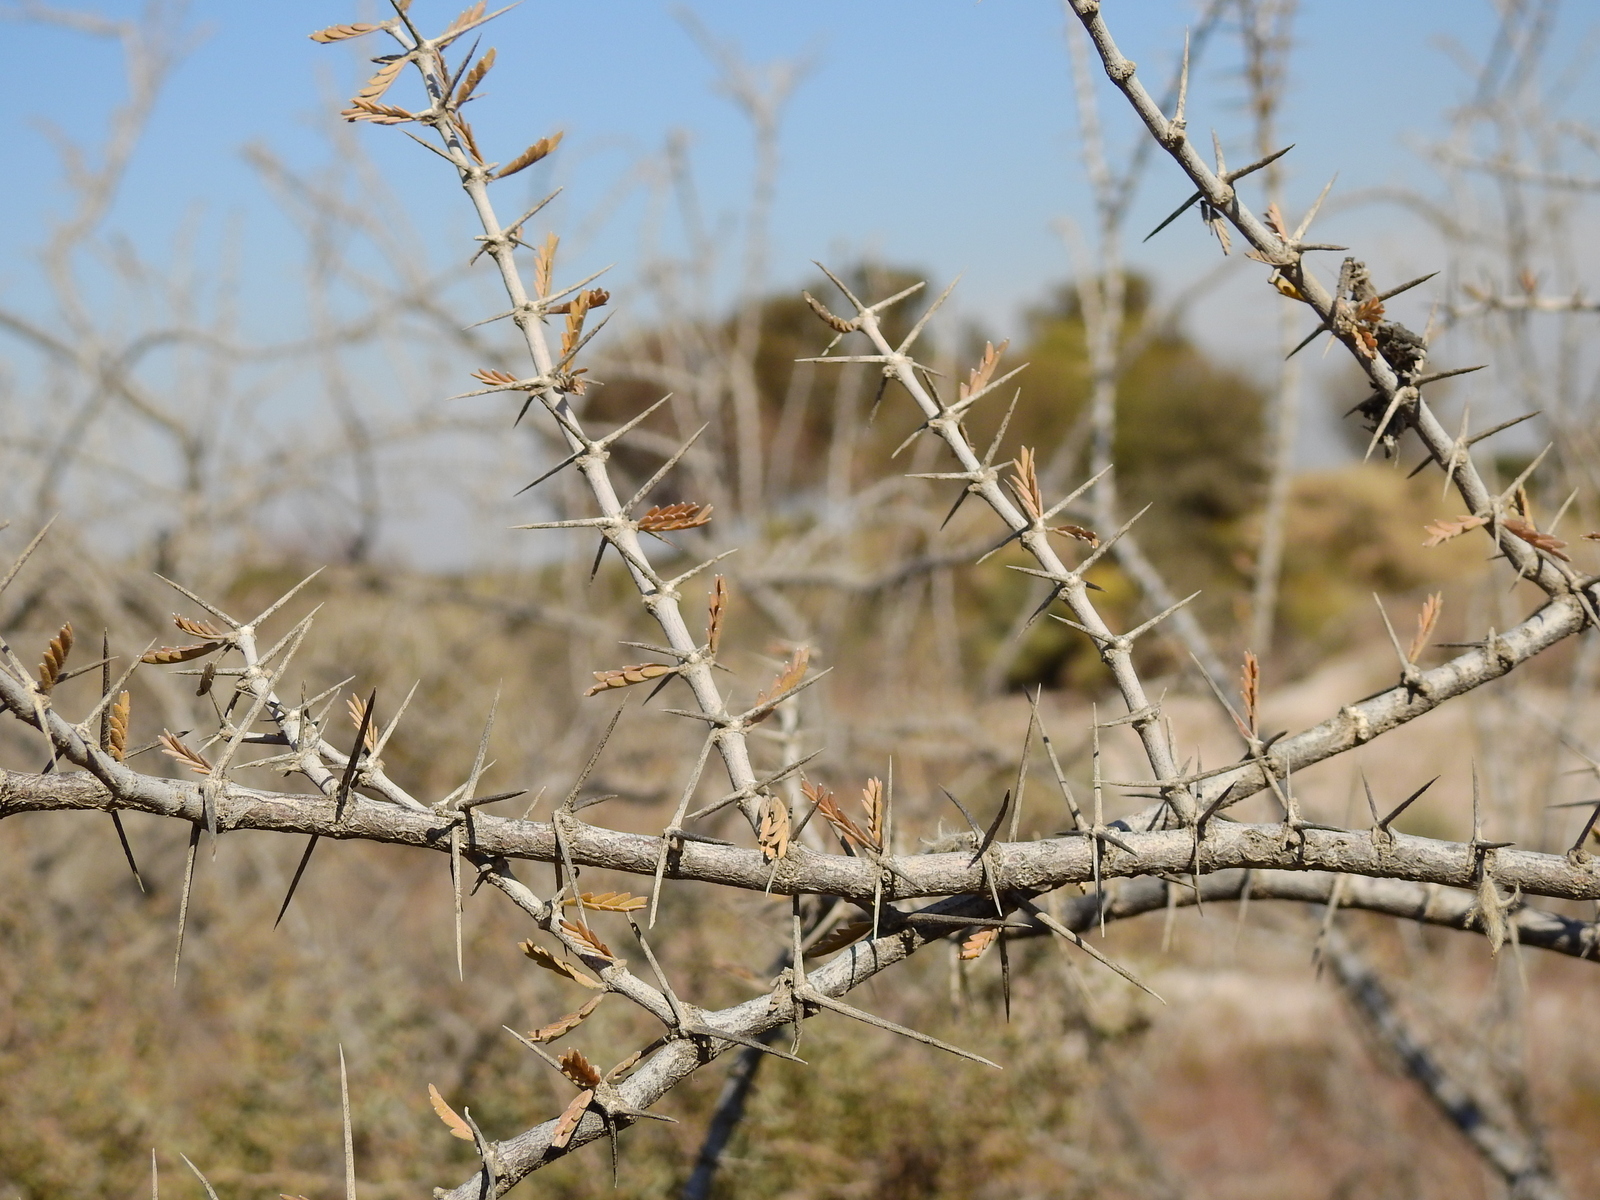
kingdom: Plantae
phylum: Tracheophyta
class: Magnoliopsida
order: Zygophyllales
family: Zygophyllaceae
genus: Plectrocarpa
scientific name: Plectrocarpa tetracantha
